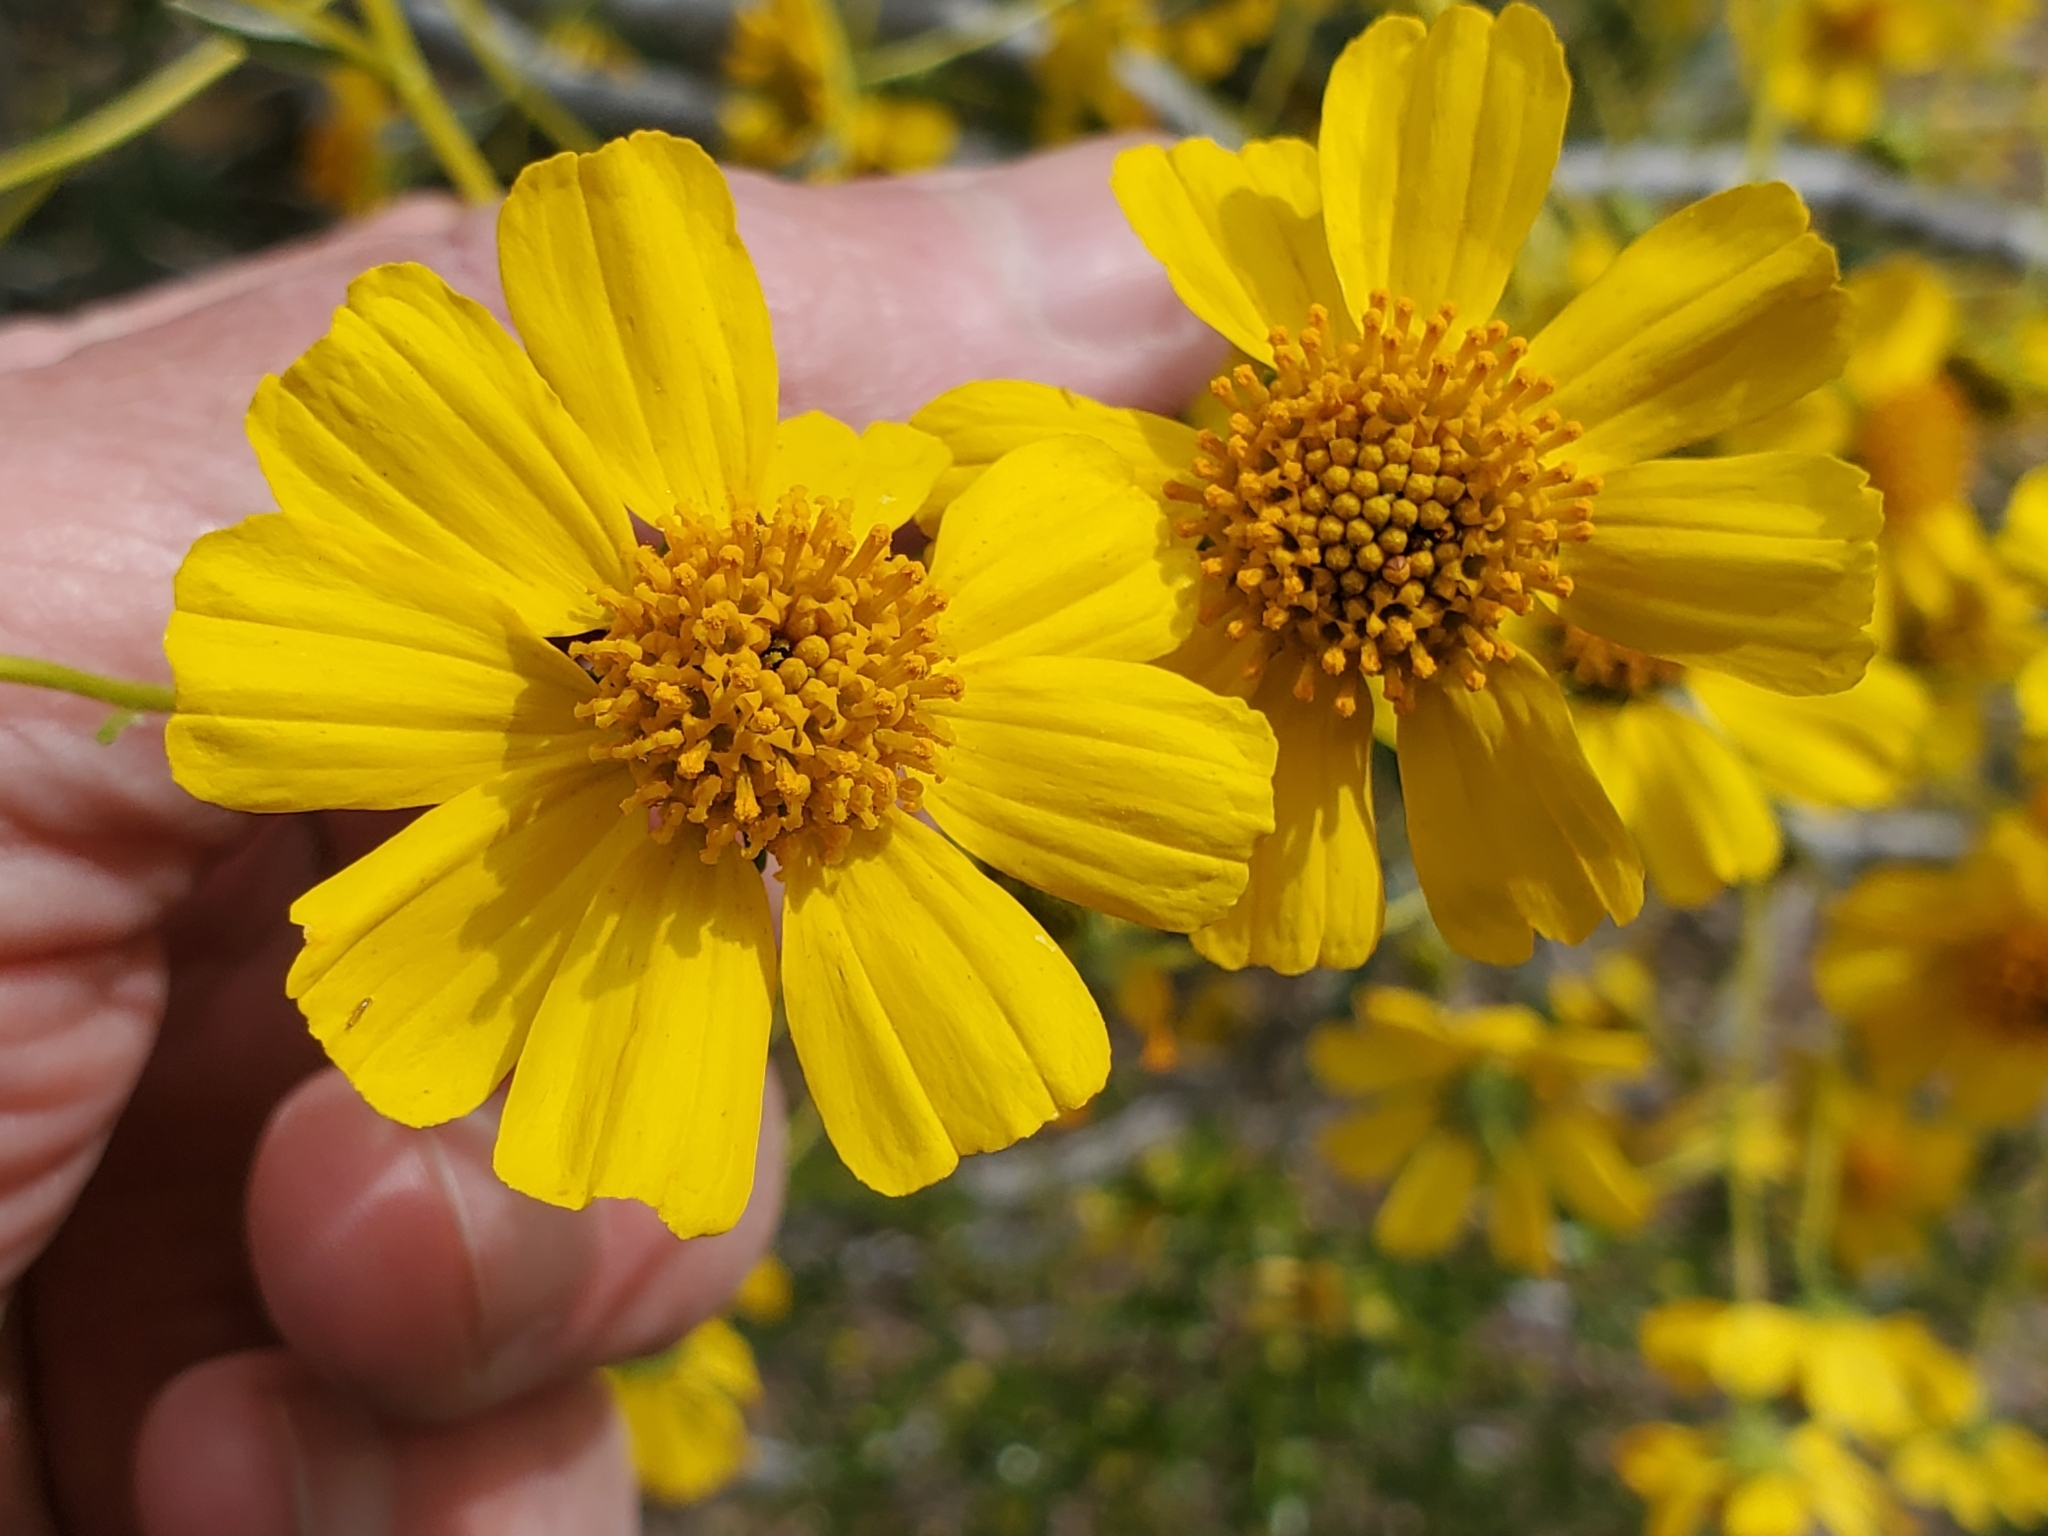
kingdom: Plantae
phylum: Tracheophyta
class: Magnoliopsida
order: Asterales
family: Asteraceae
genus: Encelia
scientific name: Encelia farinosa
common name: Brittlebush
